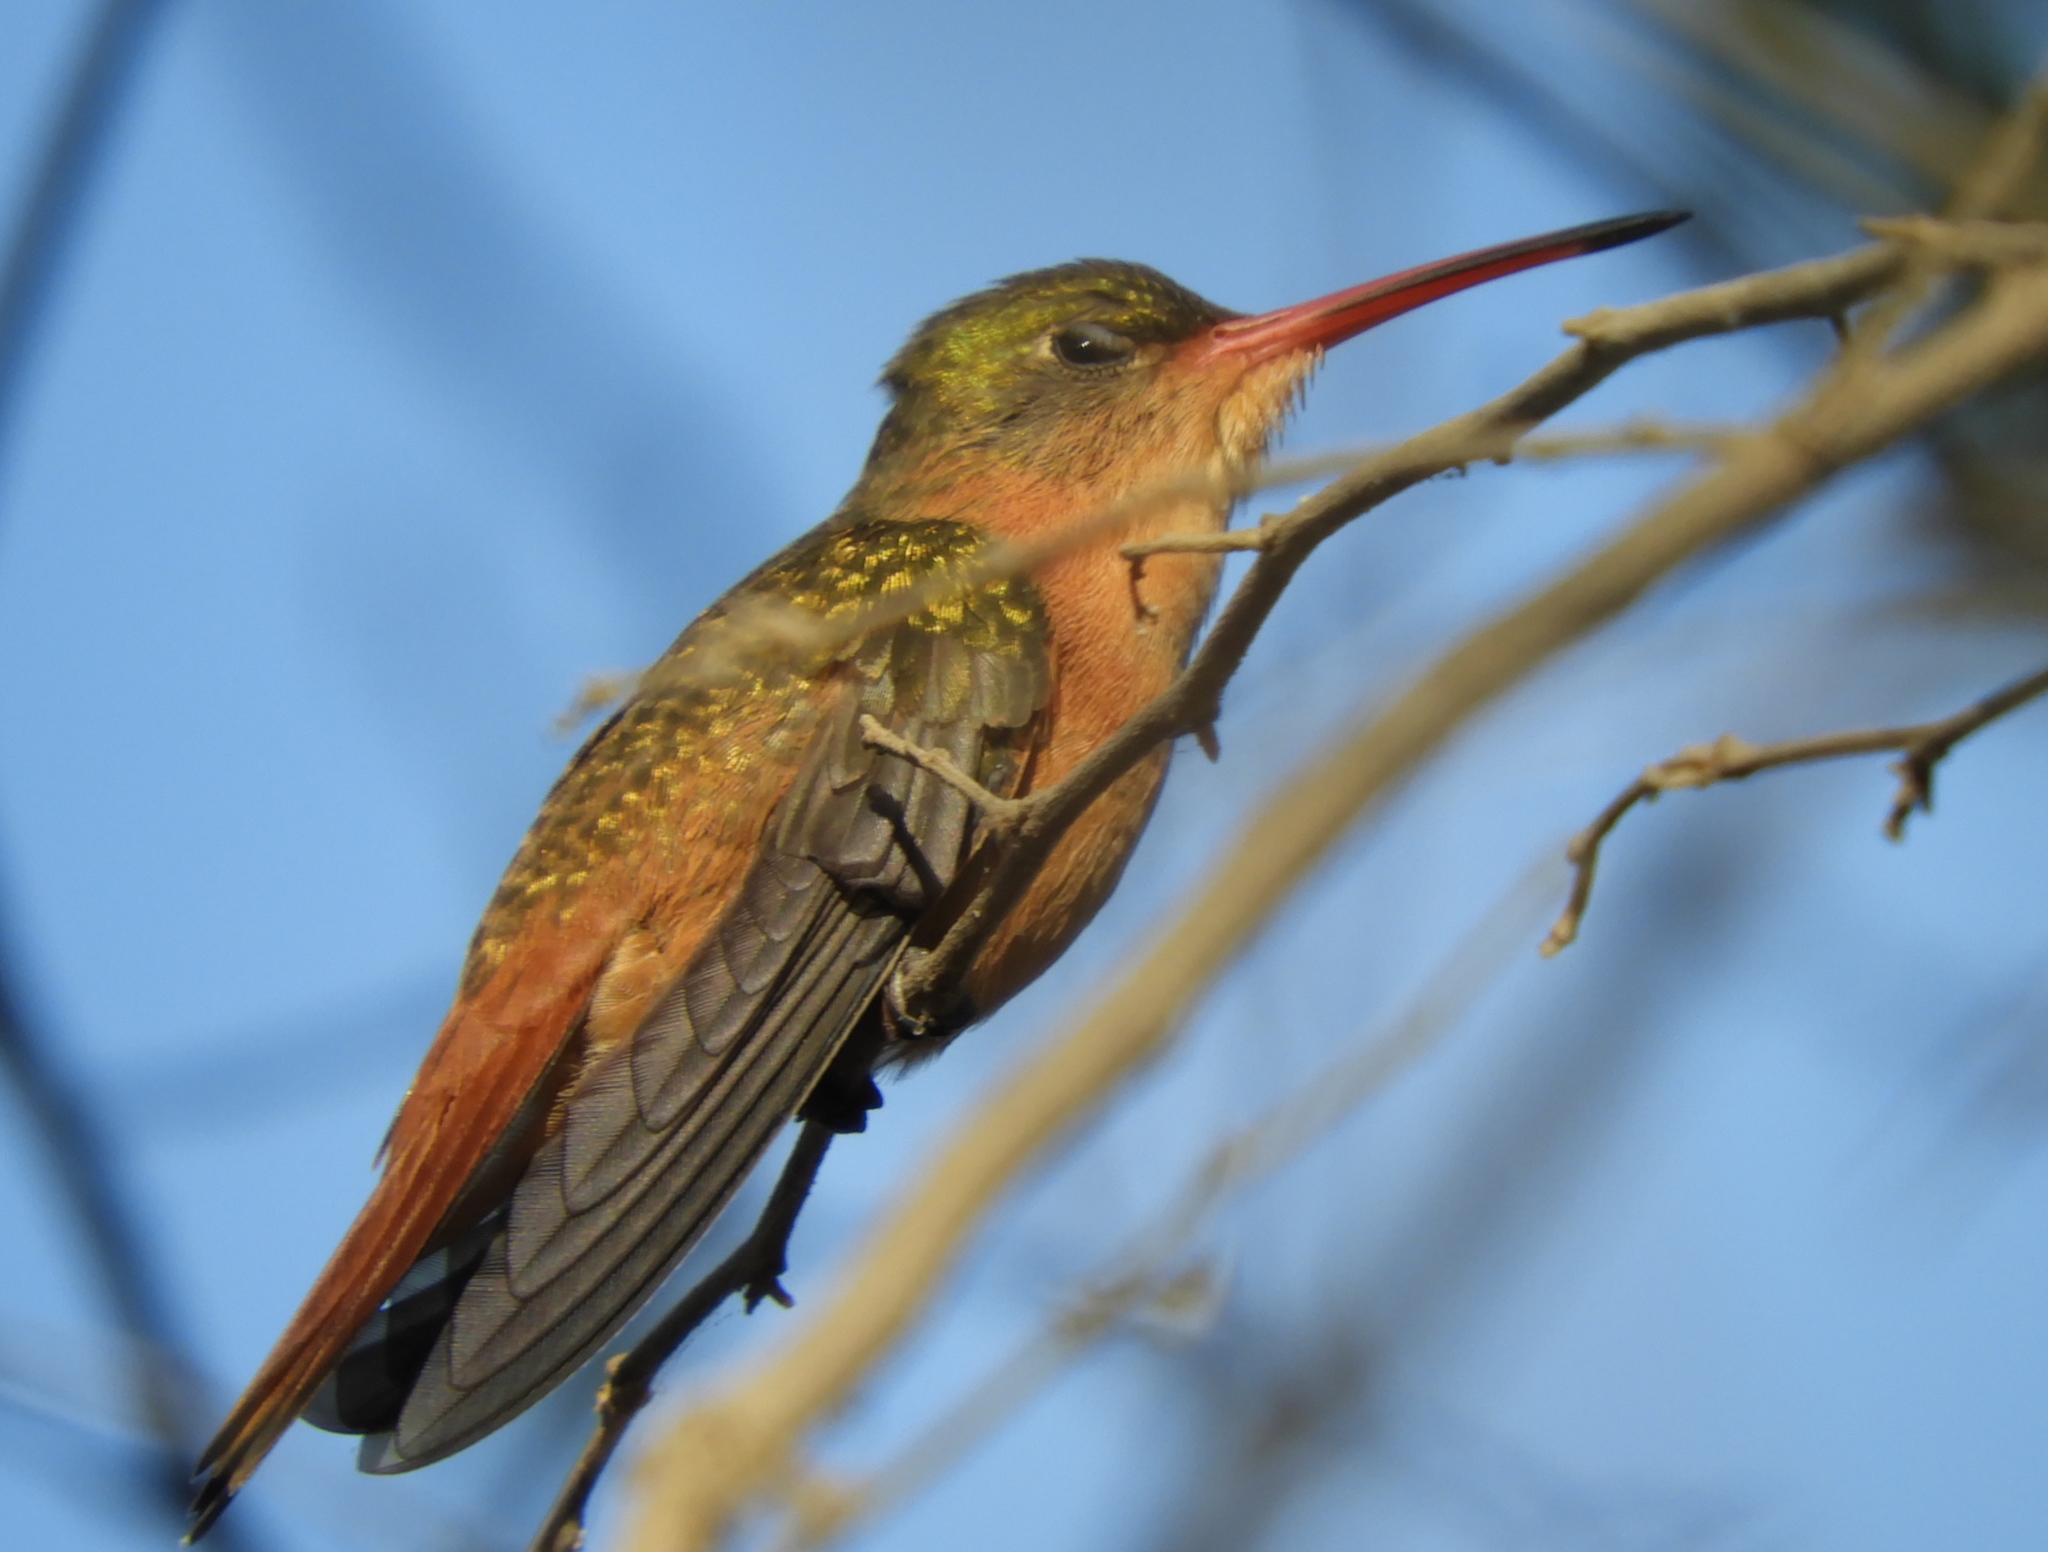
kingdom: Animalia
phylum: Chordata
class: Aves
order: Apodiformes
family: Trochilidae
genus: Amazilia
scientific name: Amazilia rutila
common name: Cinnamon hummingbird
